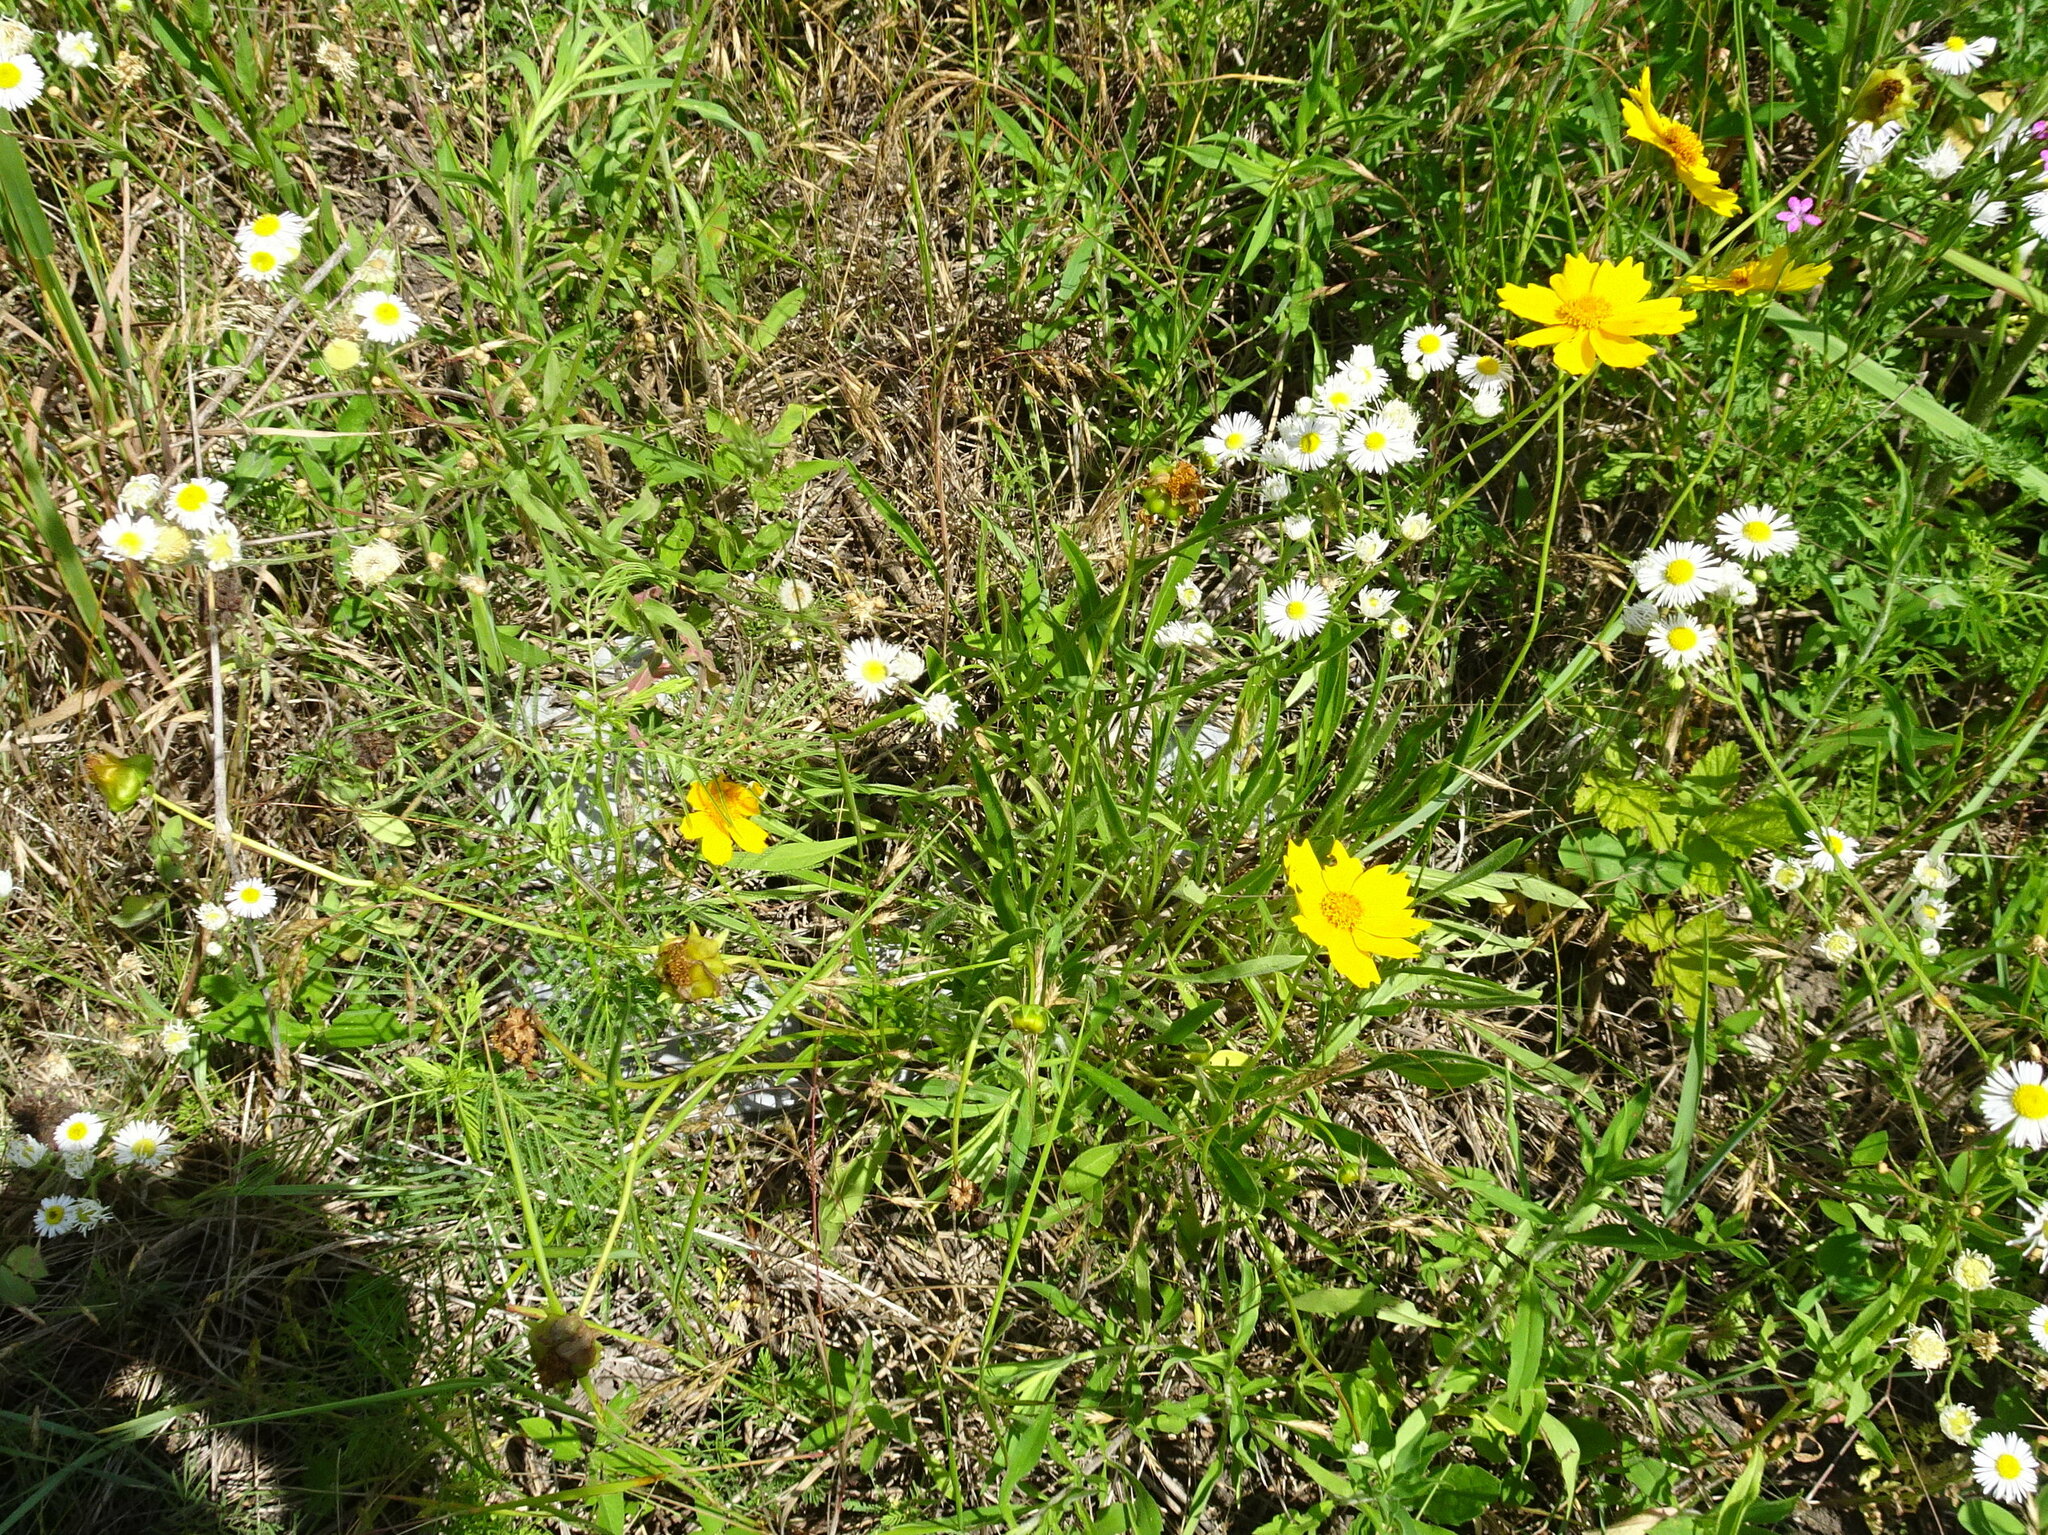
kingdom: Plantae
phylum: Tracheophyta
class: Magnoliopsida
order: Asterales
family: Asteraceae
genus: Coreopsis
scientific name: Coreopsis lanceolata
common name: Garden coreopsis
